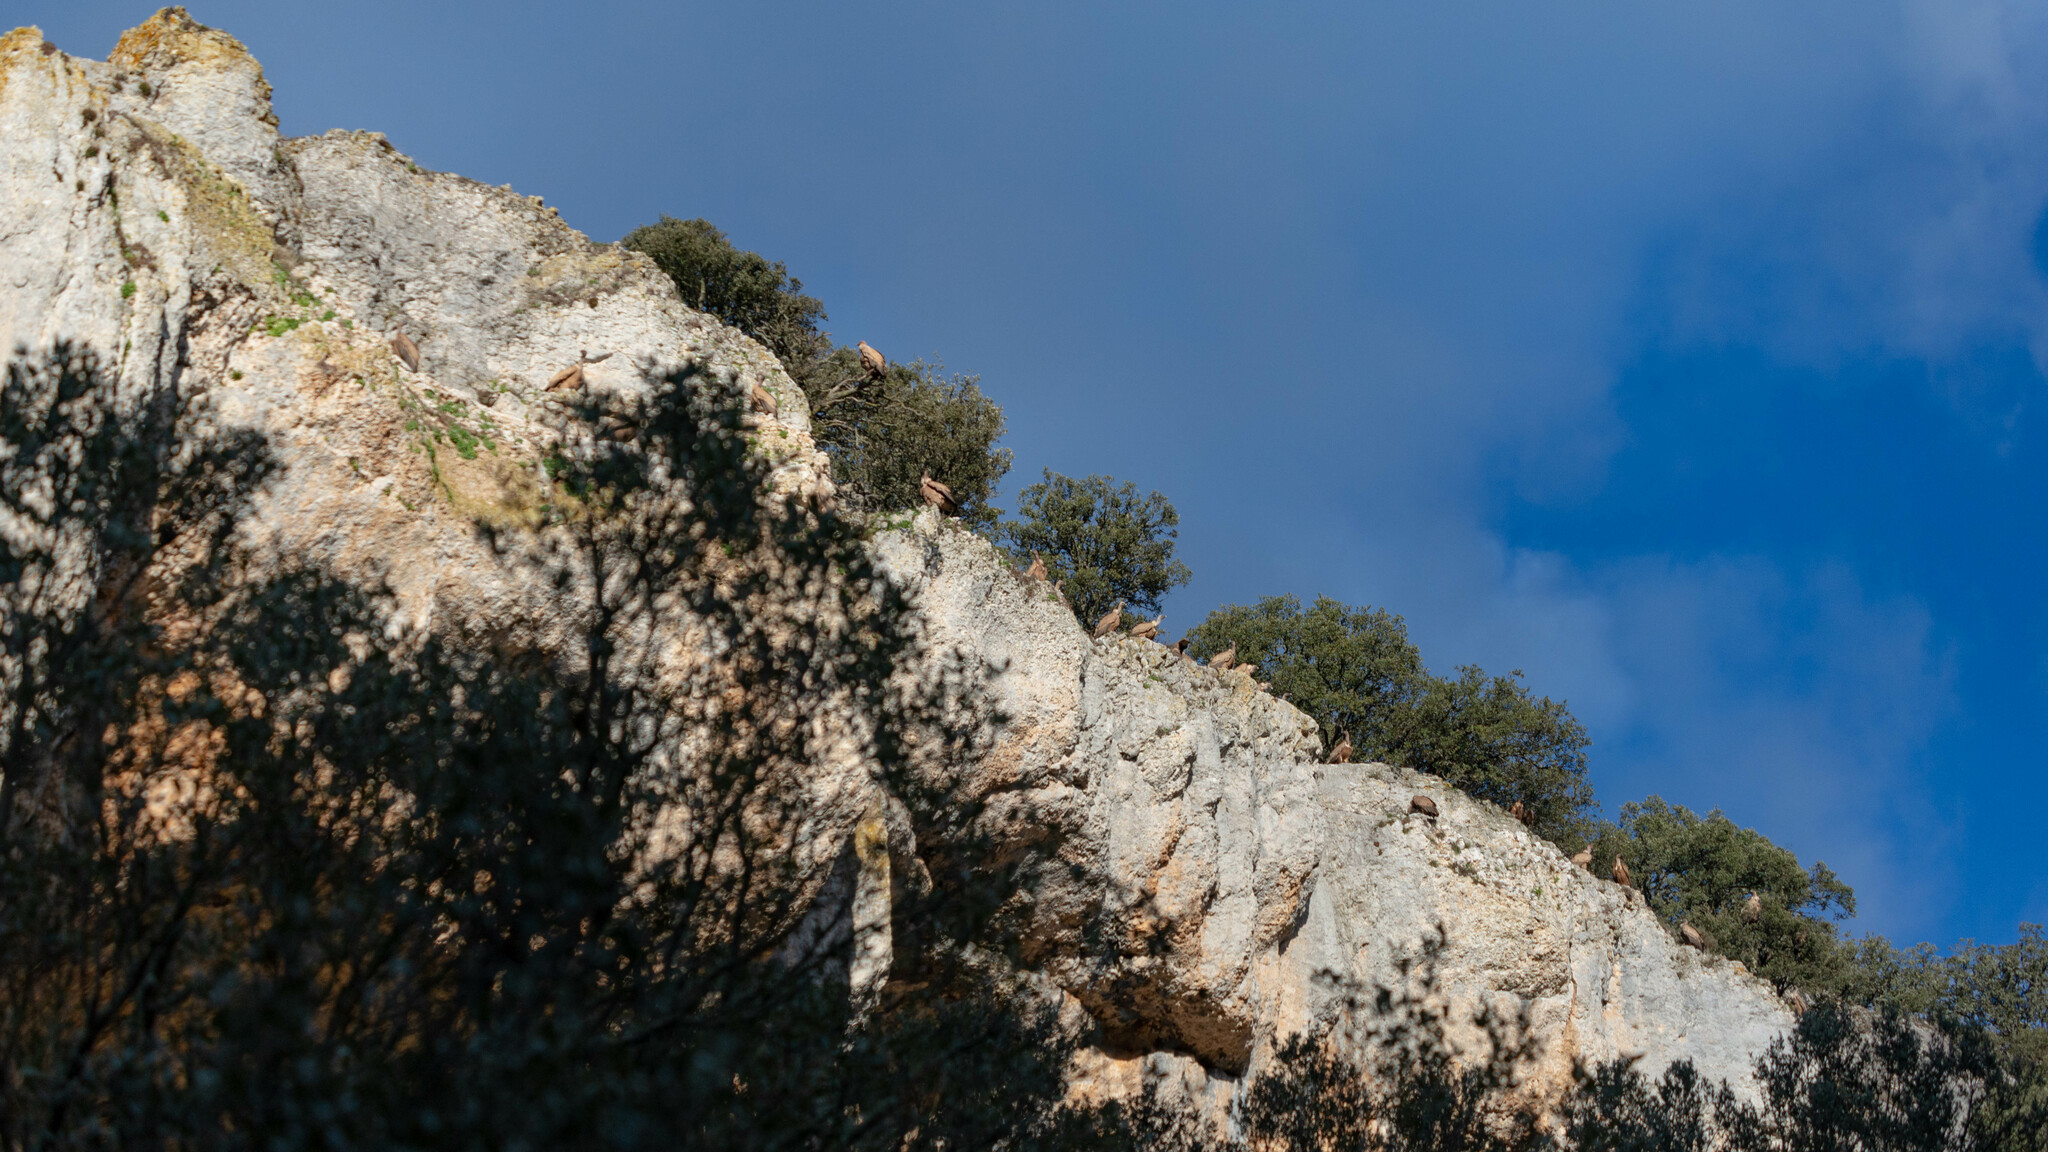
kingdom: Animalia
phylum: Chordata
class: Aves
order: Accipitriformes
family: Accipitridae
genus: Gyps
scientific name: Gyps fulvus
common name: Griffon vulture
